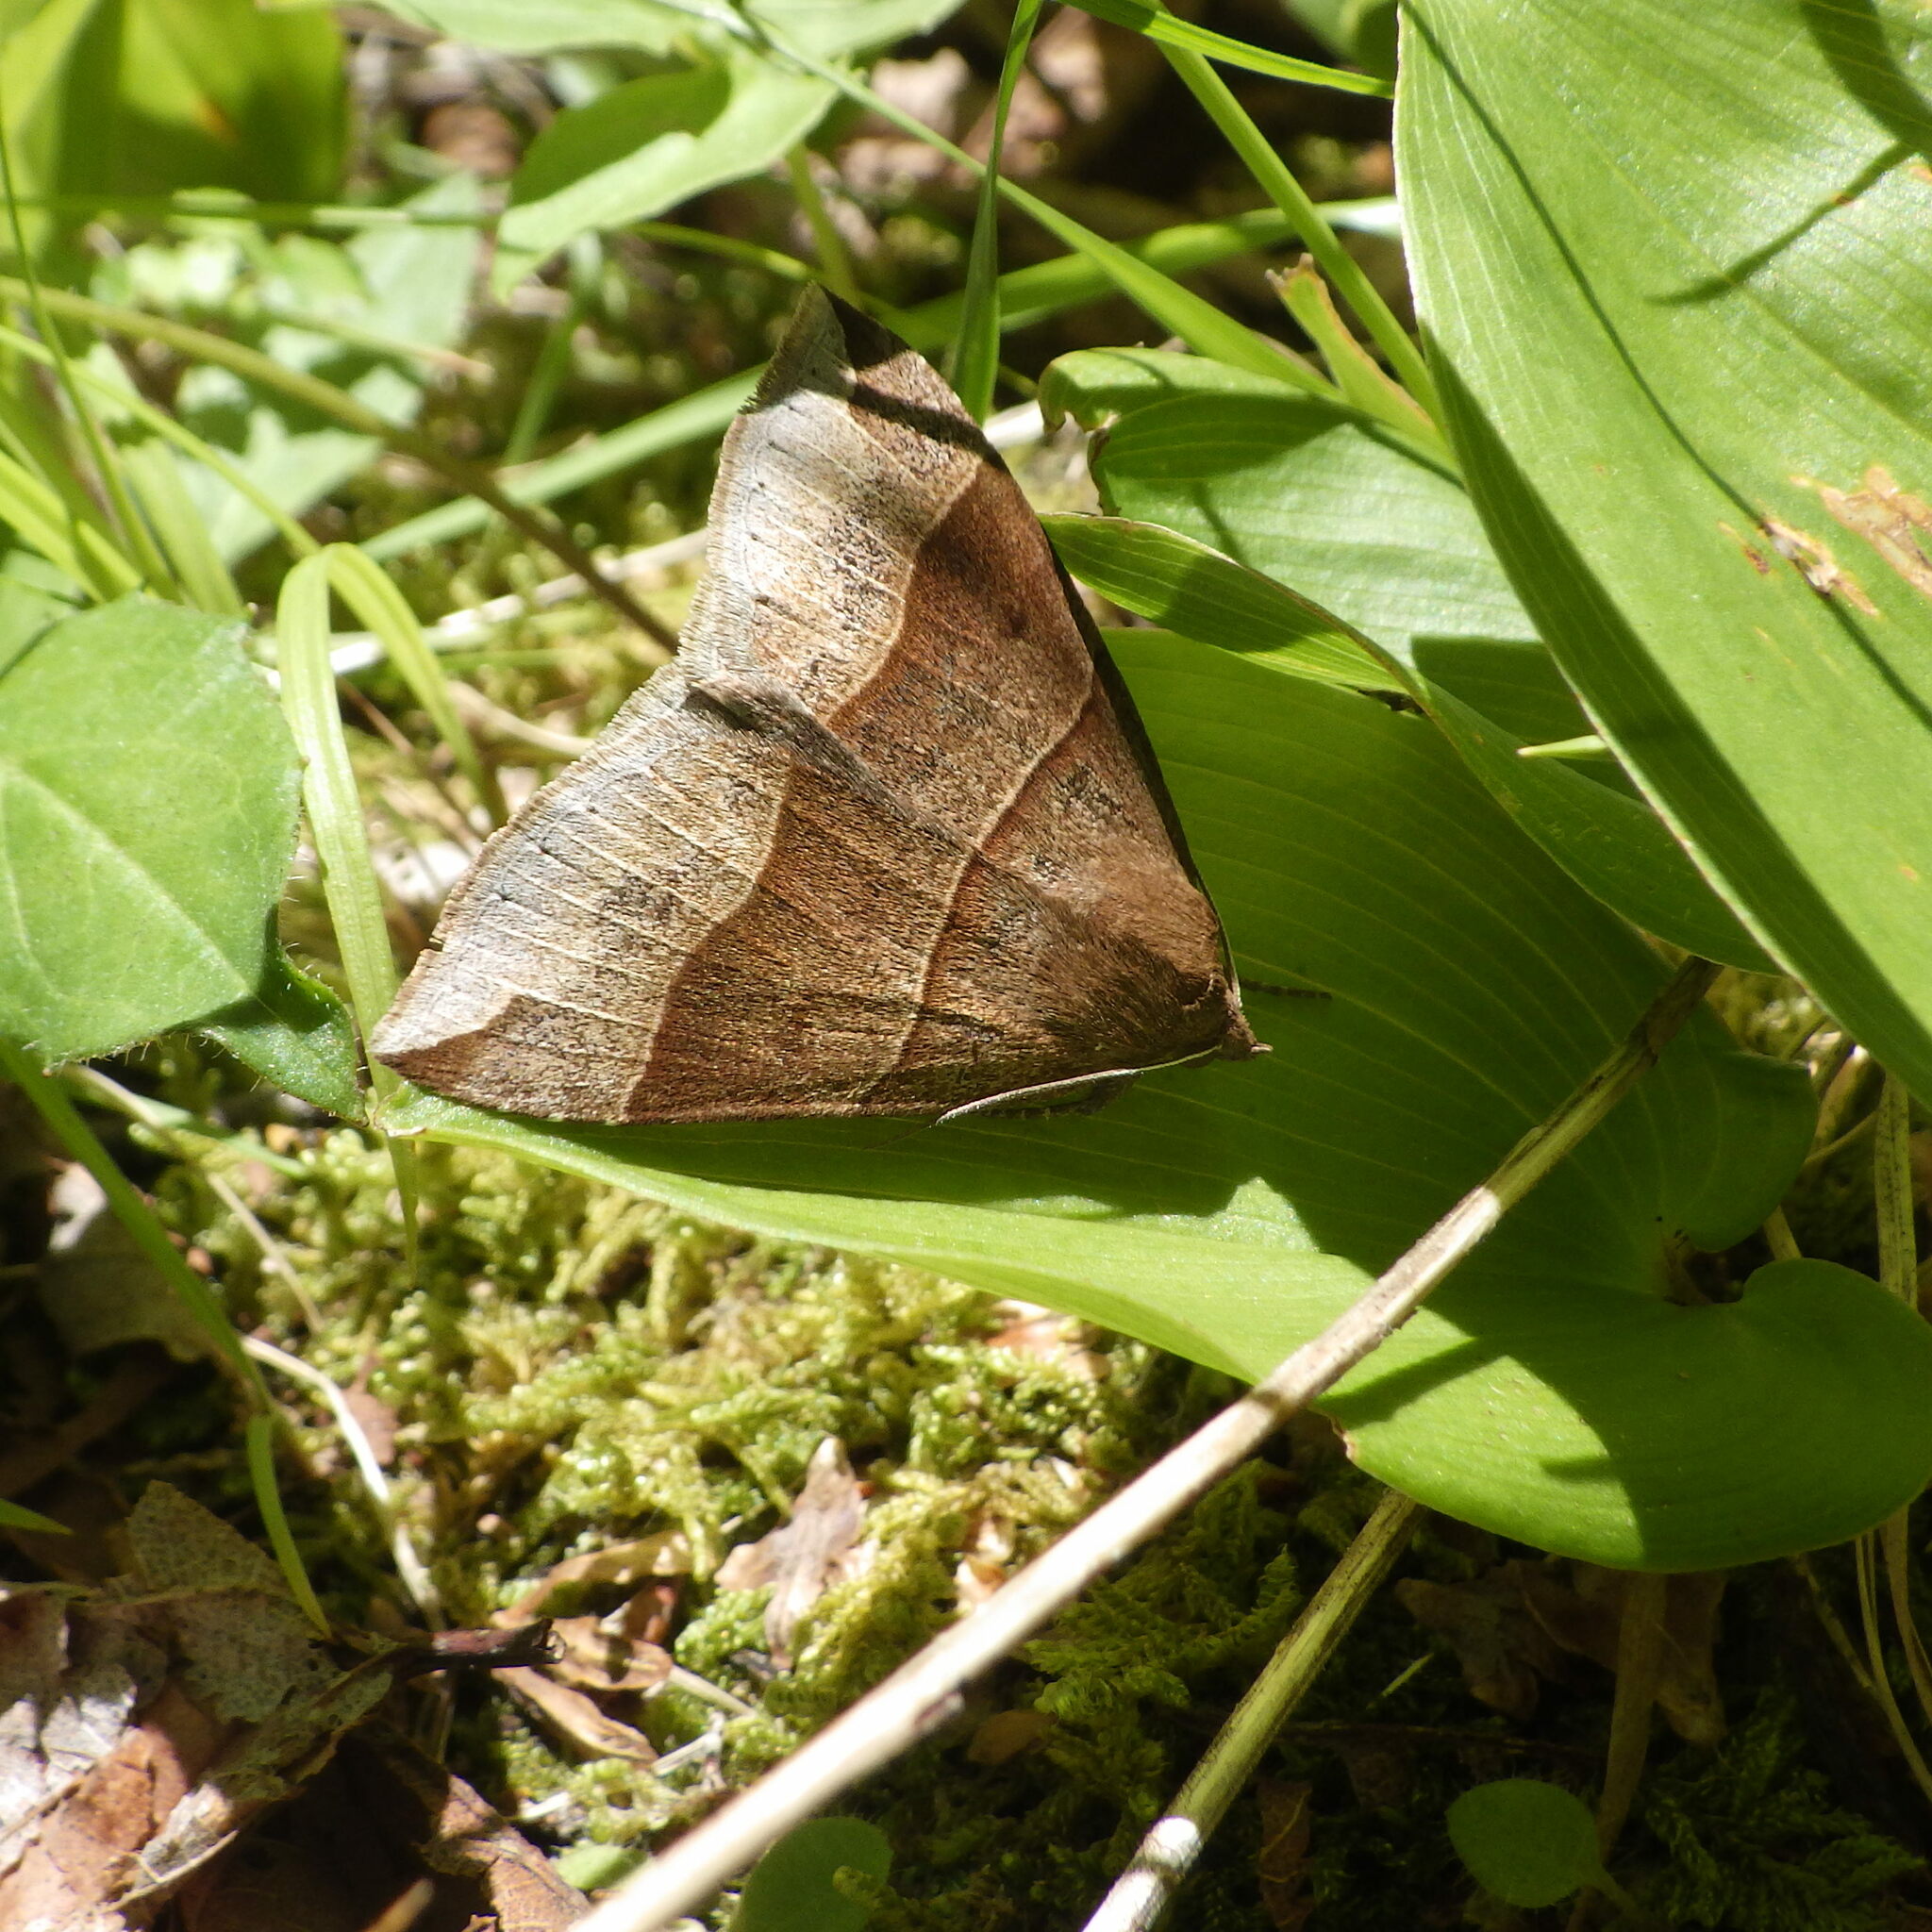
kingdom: Animalia
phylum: Arthropoda
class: Insecta
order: Lepidoptera
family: Erebidae
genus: Parallelia
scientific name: Parallelia bistriaris
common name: Maple looper moth
